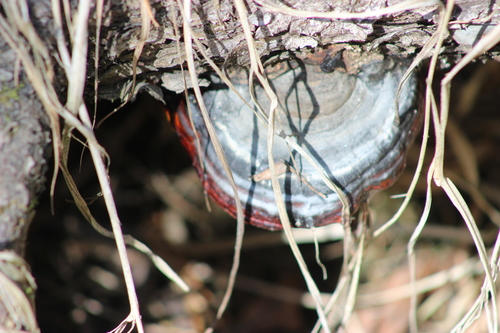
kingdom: Fungi
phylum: Basidiomycota
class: Agaricomycetes
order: Polyporales
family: Fomitopsidaceae
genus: Fomitopsis
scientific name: Fomitopsis pinicola
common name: Red-belted bracket
